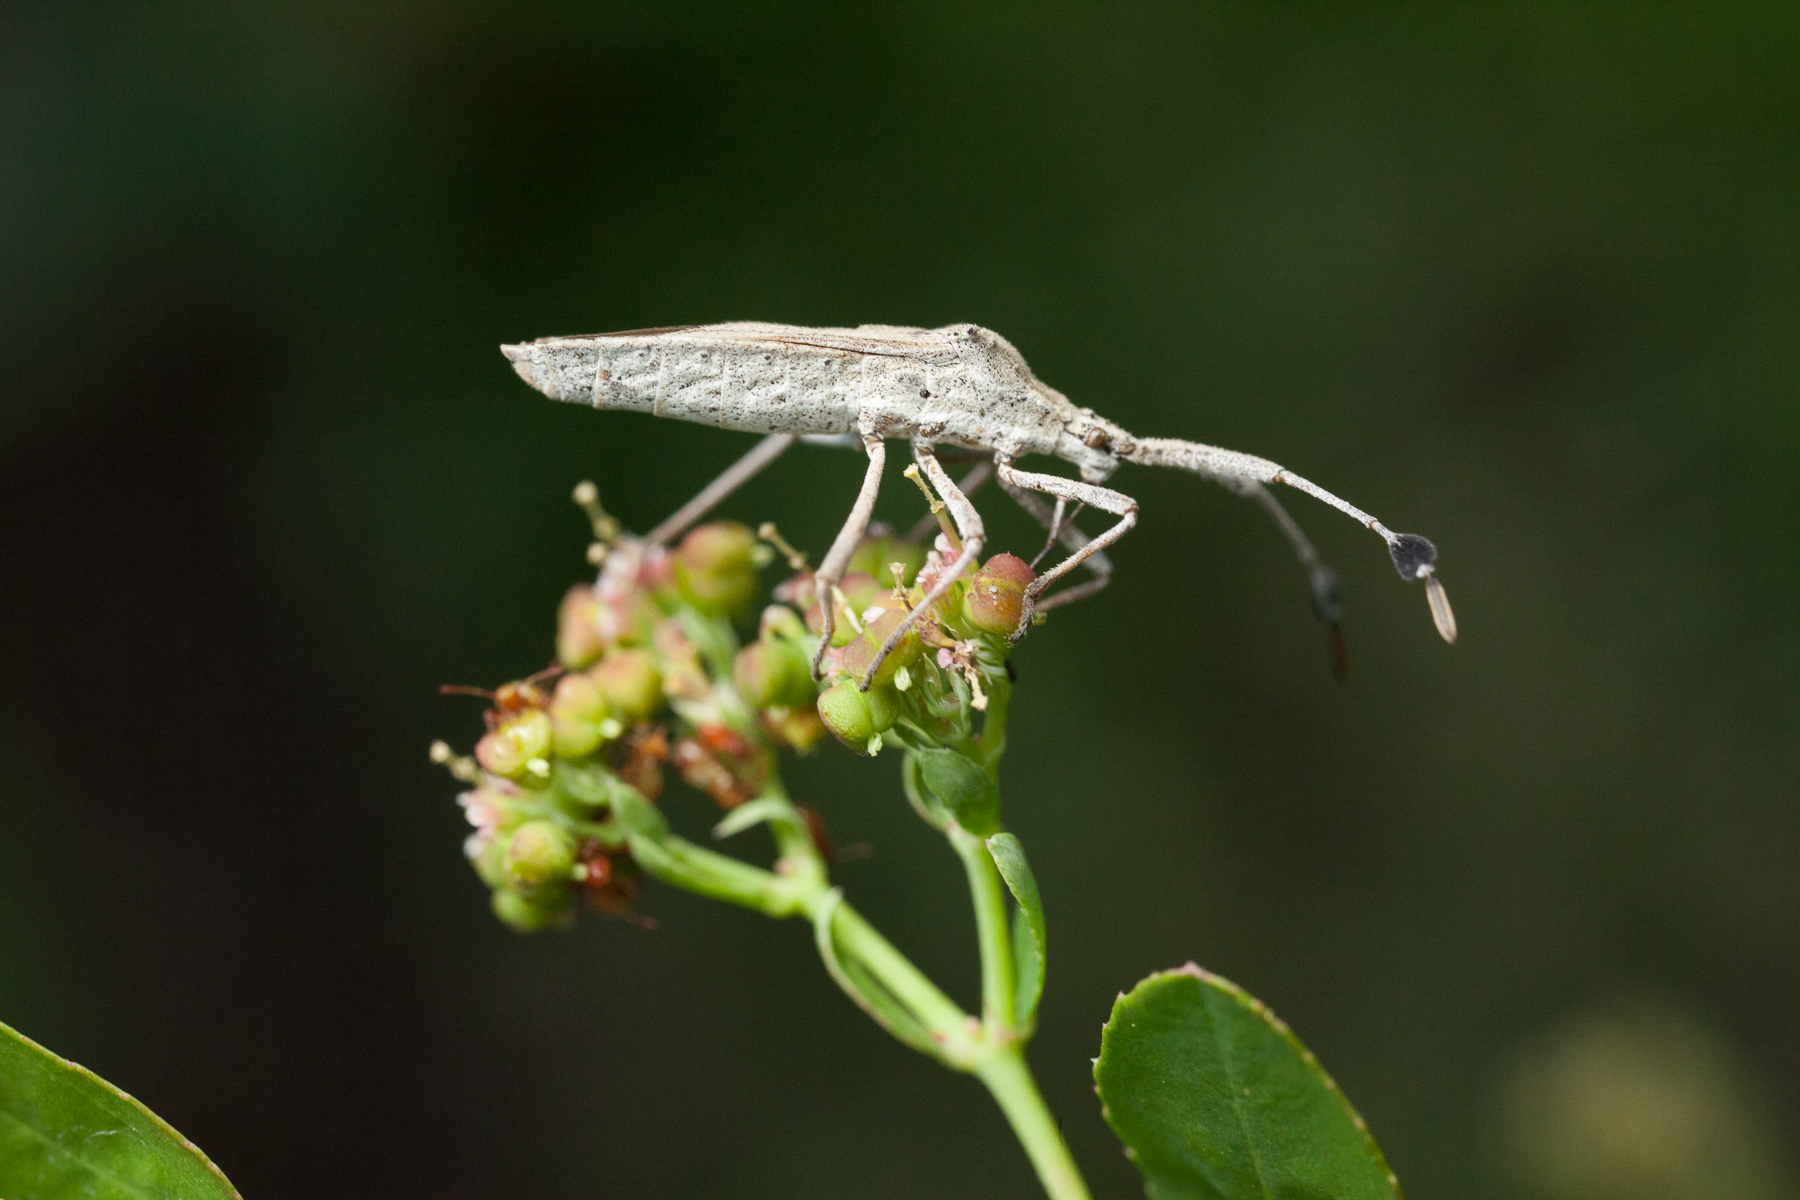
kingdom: Animalia
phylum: Arthropoda
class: Insecta
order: Hemiptera
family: Coreidae
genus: Chariesterus
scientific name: Chariesterus antennator
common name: Flat horned coreid
